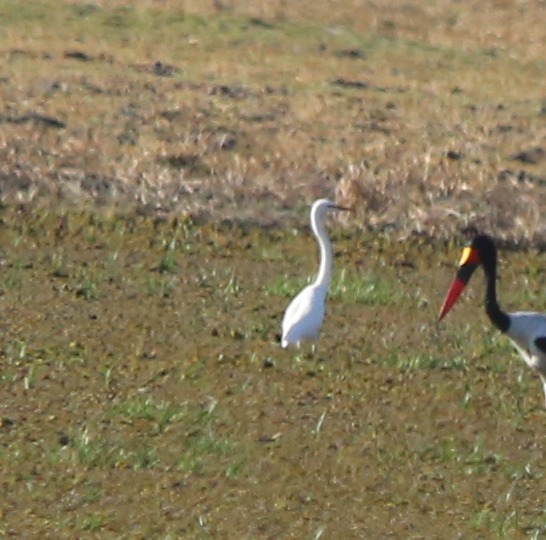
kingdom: Animalia
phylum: Chordata
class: Aves
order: Pelecaniformes
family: Ardeidae
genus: Ardea
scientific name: Ardea alba
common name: Great egret
